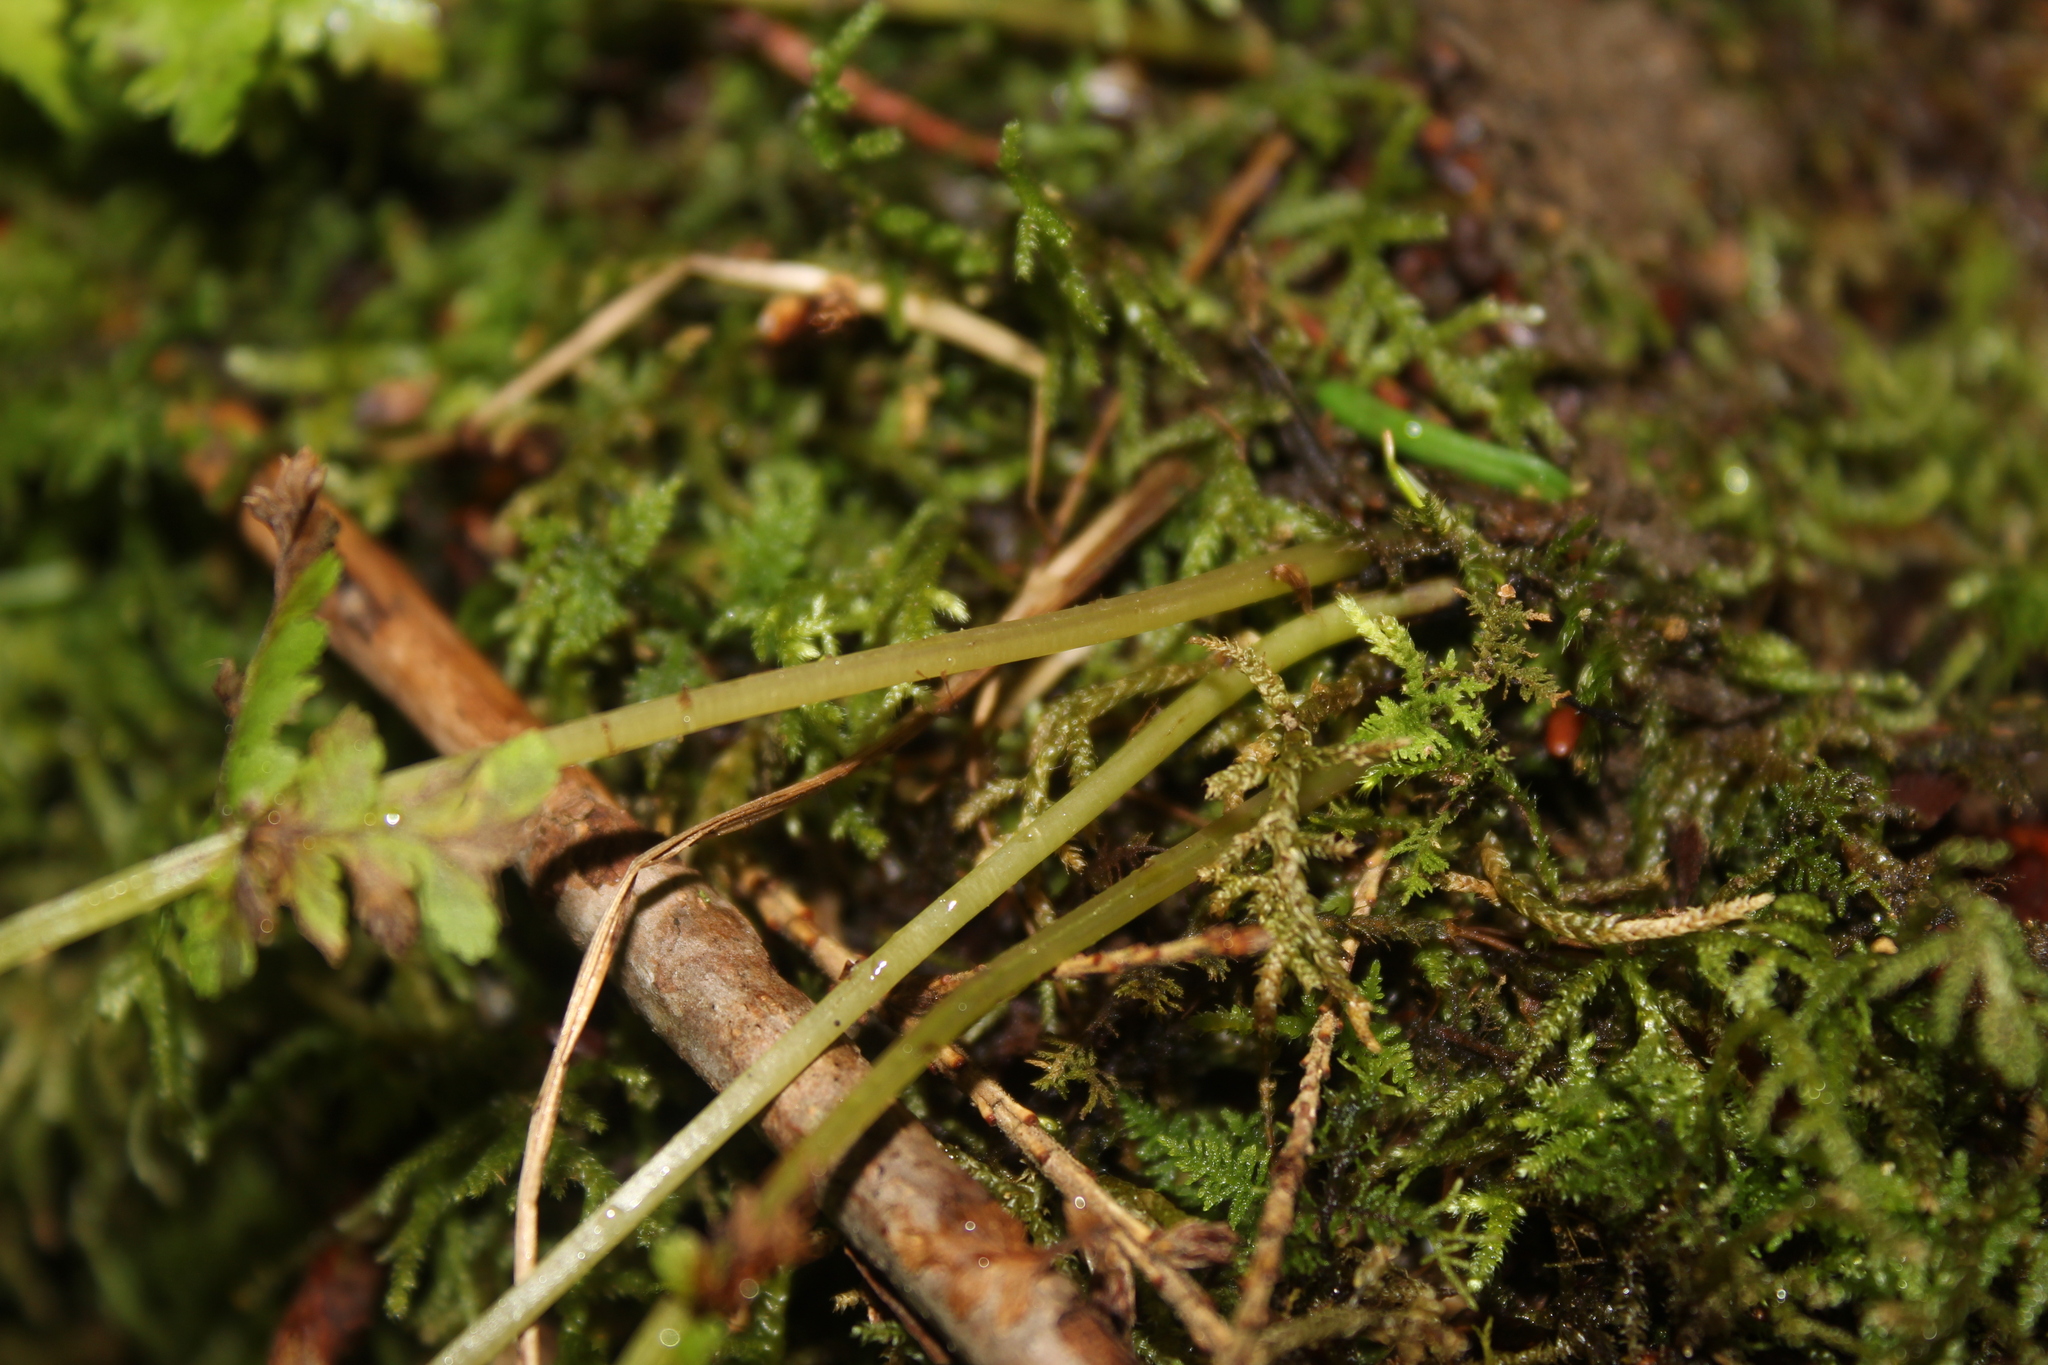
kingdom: Plantae
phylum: Tracheophyta
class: Polypodiopsida
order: Polypodiales
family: Athyriaceae
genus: Athyrium
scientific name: Athyrium angustum
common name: Northern lady fern
